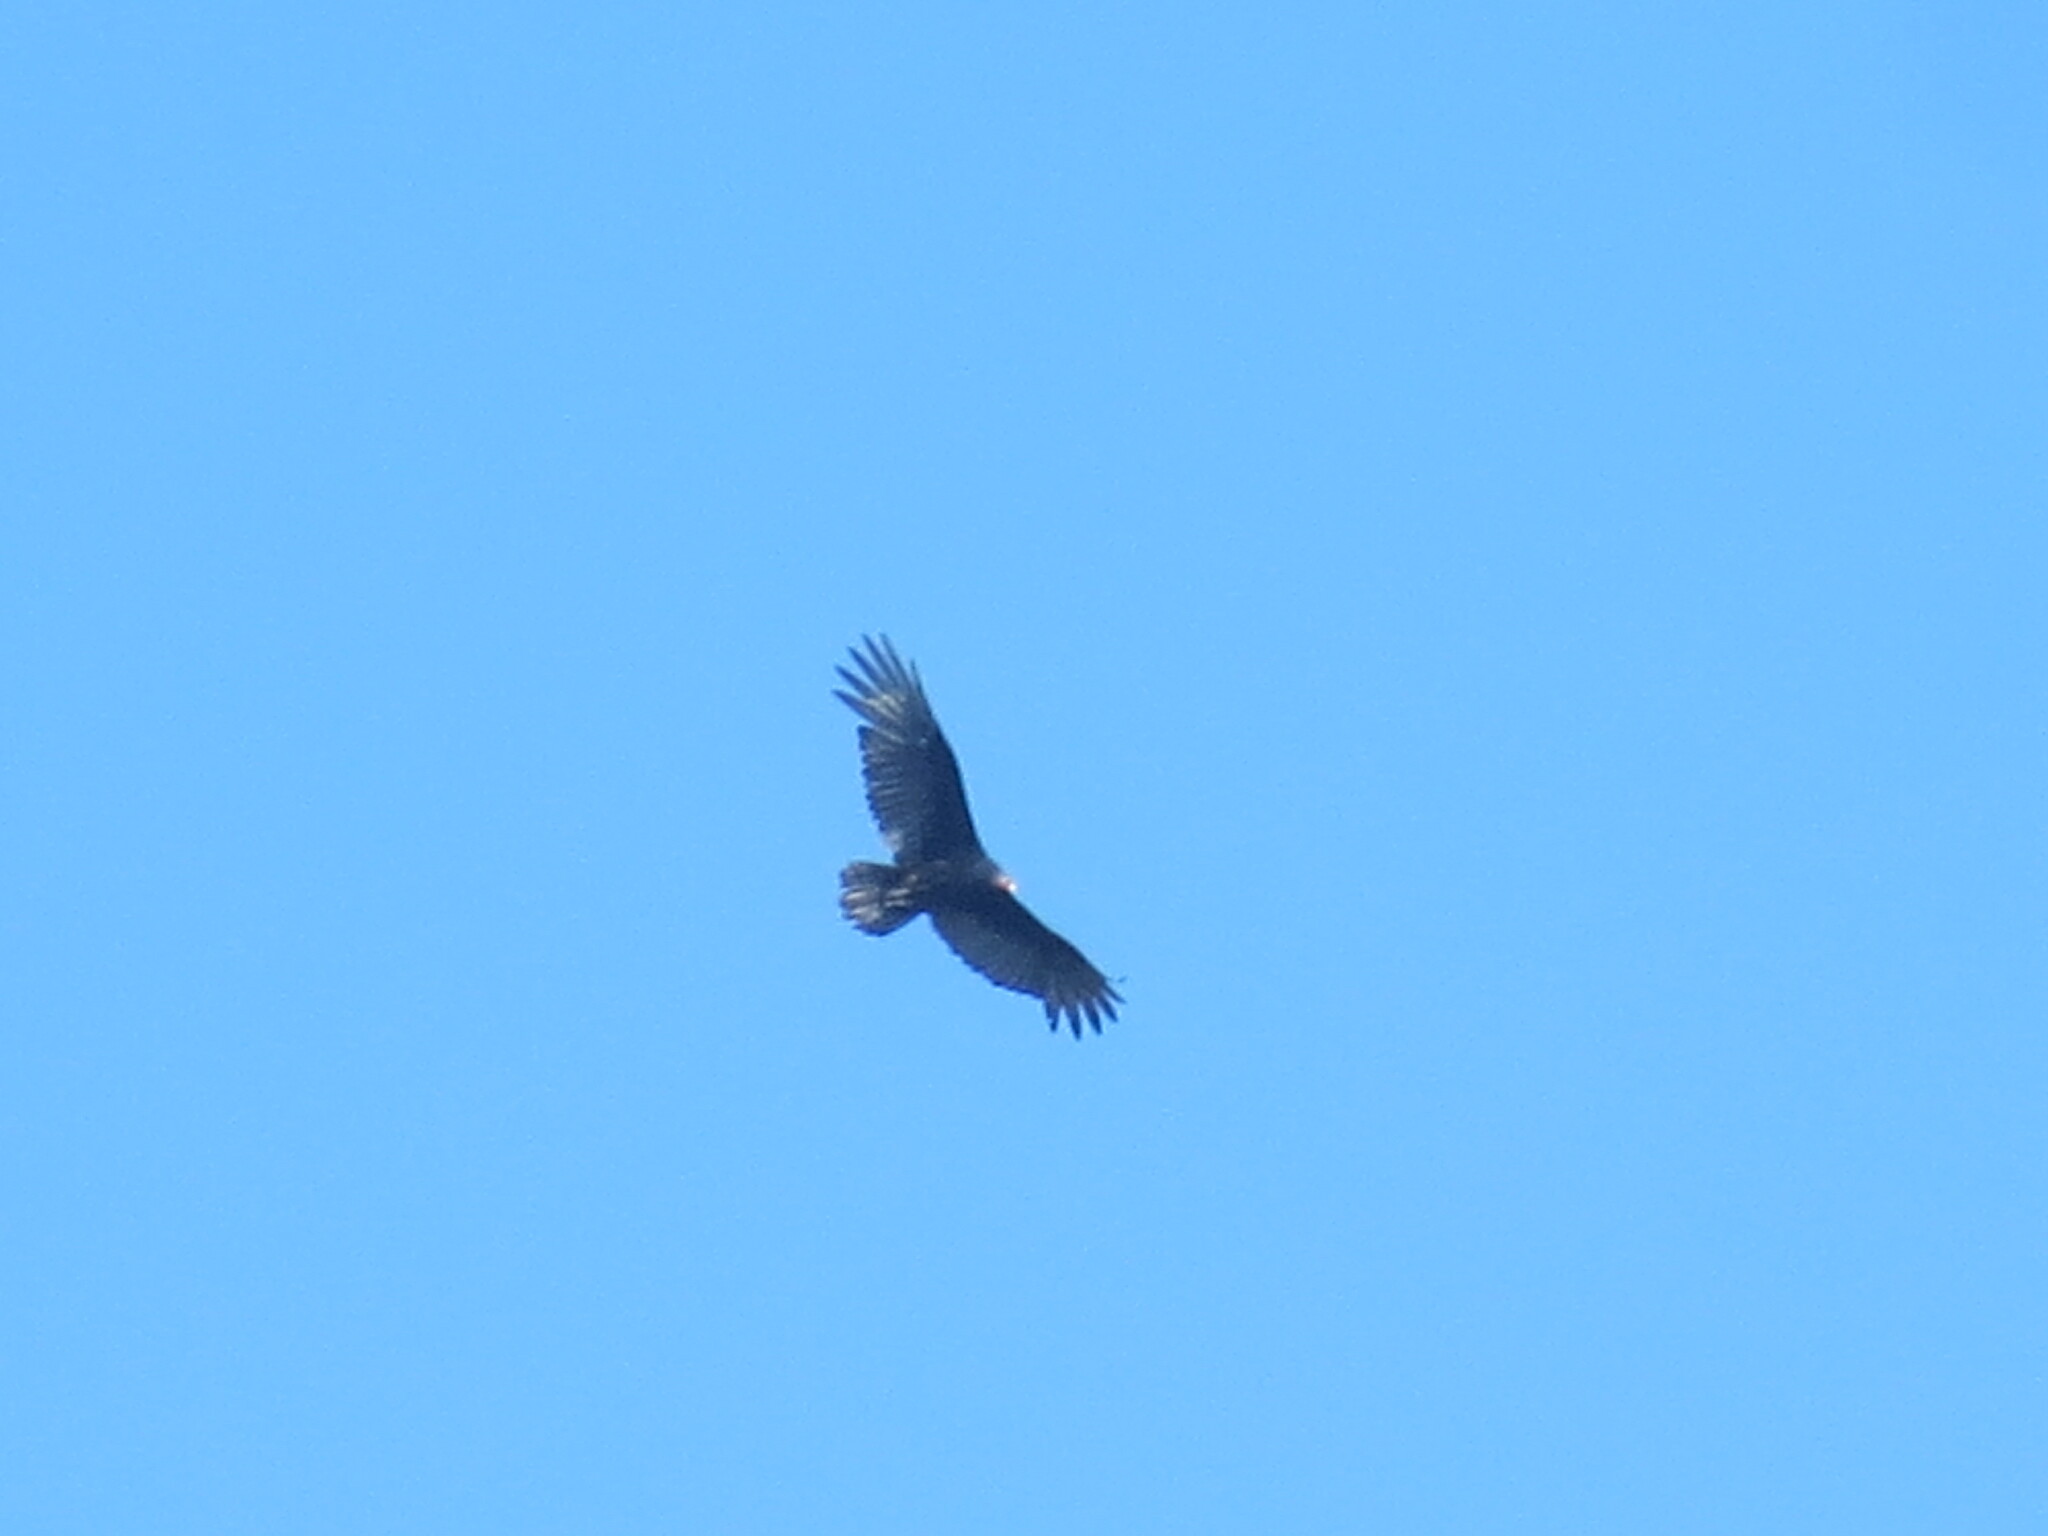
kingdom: Animalia
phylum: Chordata
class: Aves
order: Accipitriformes
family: Cathartidae
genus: Cathartes
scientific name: Cathartes aura
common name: Turkey vulture
